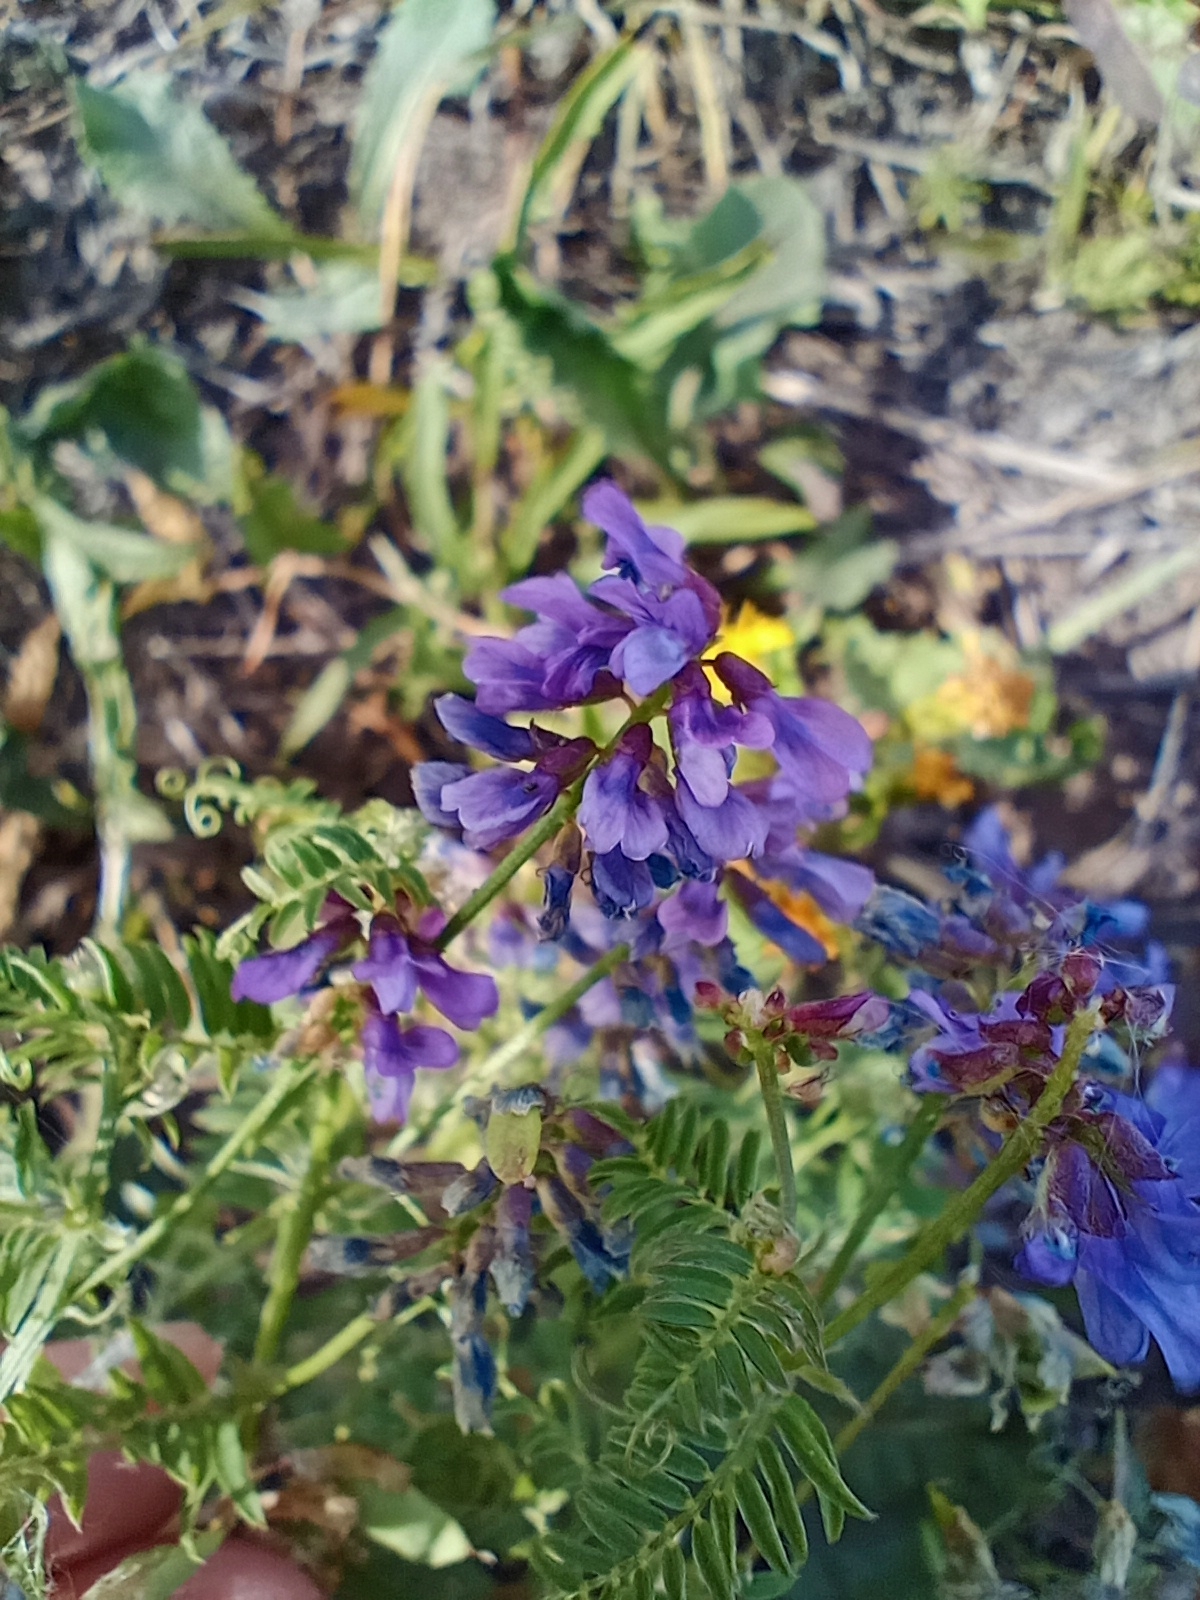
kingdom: Plantae
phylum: Tracheophyta
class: Magnoliopsida
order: Fabales
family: Fabaceae
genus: Vicia
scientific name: Vicia cracca
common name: Bird vetch
